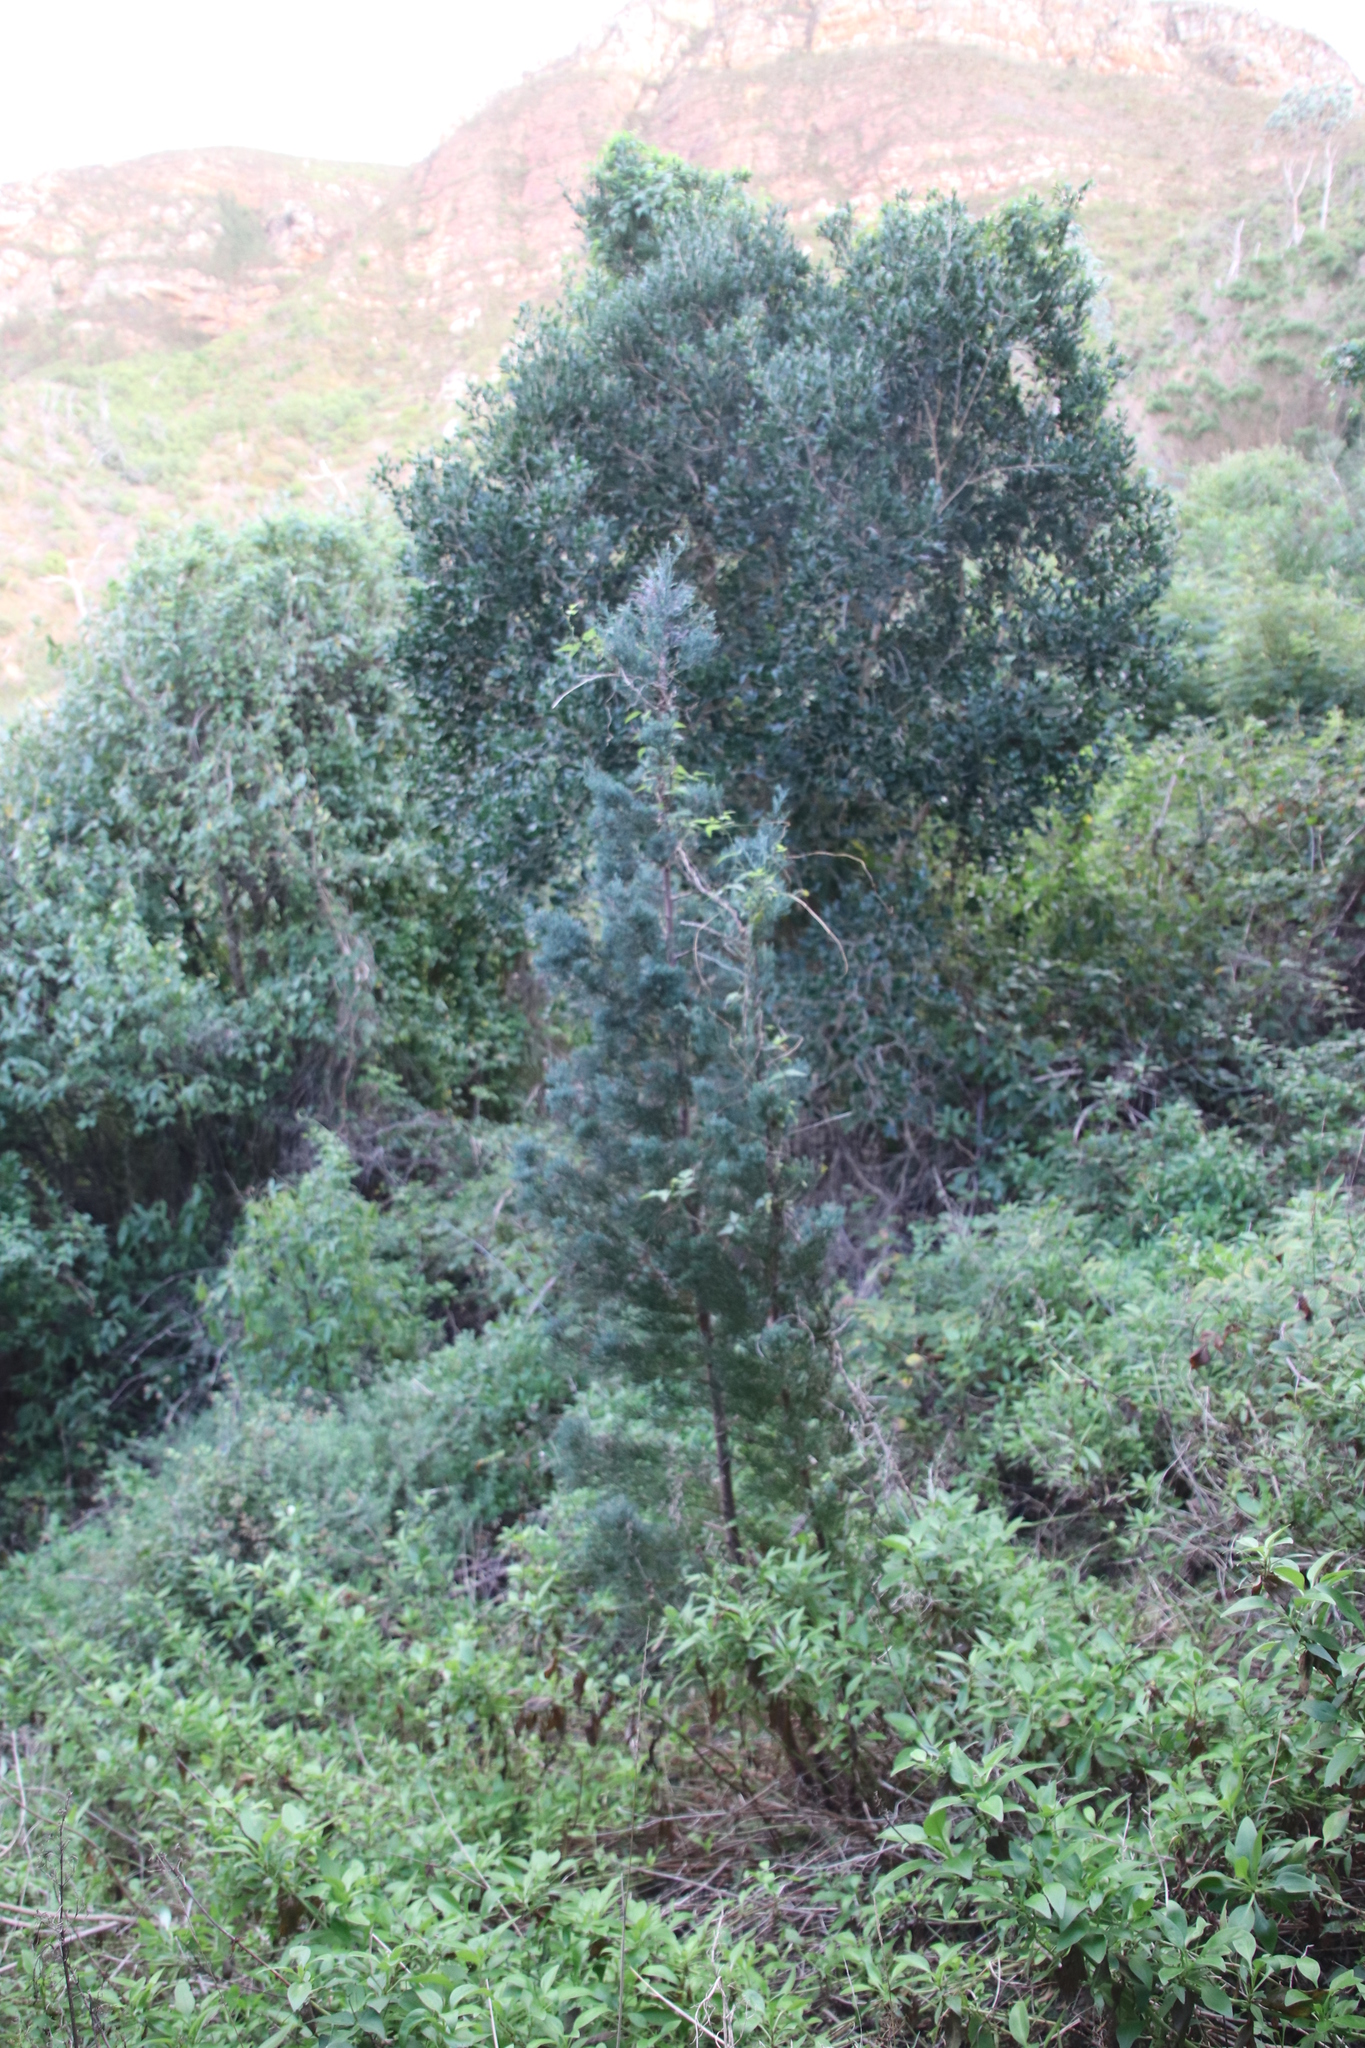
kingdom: Plantae
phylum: Tracheophyta
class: Magnoliopsida
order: Fabales
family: Fabaceae
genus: Acacia
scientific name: Acacia melanoxylon
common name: Blackwood
